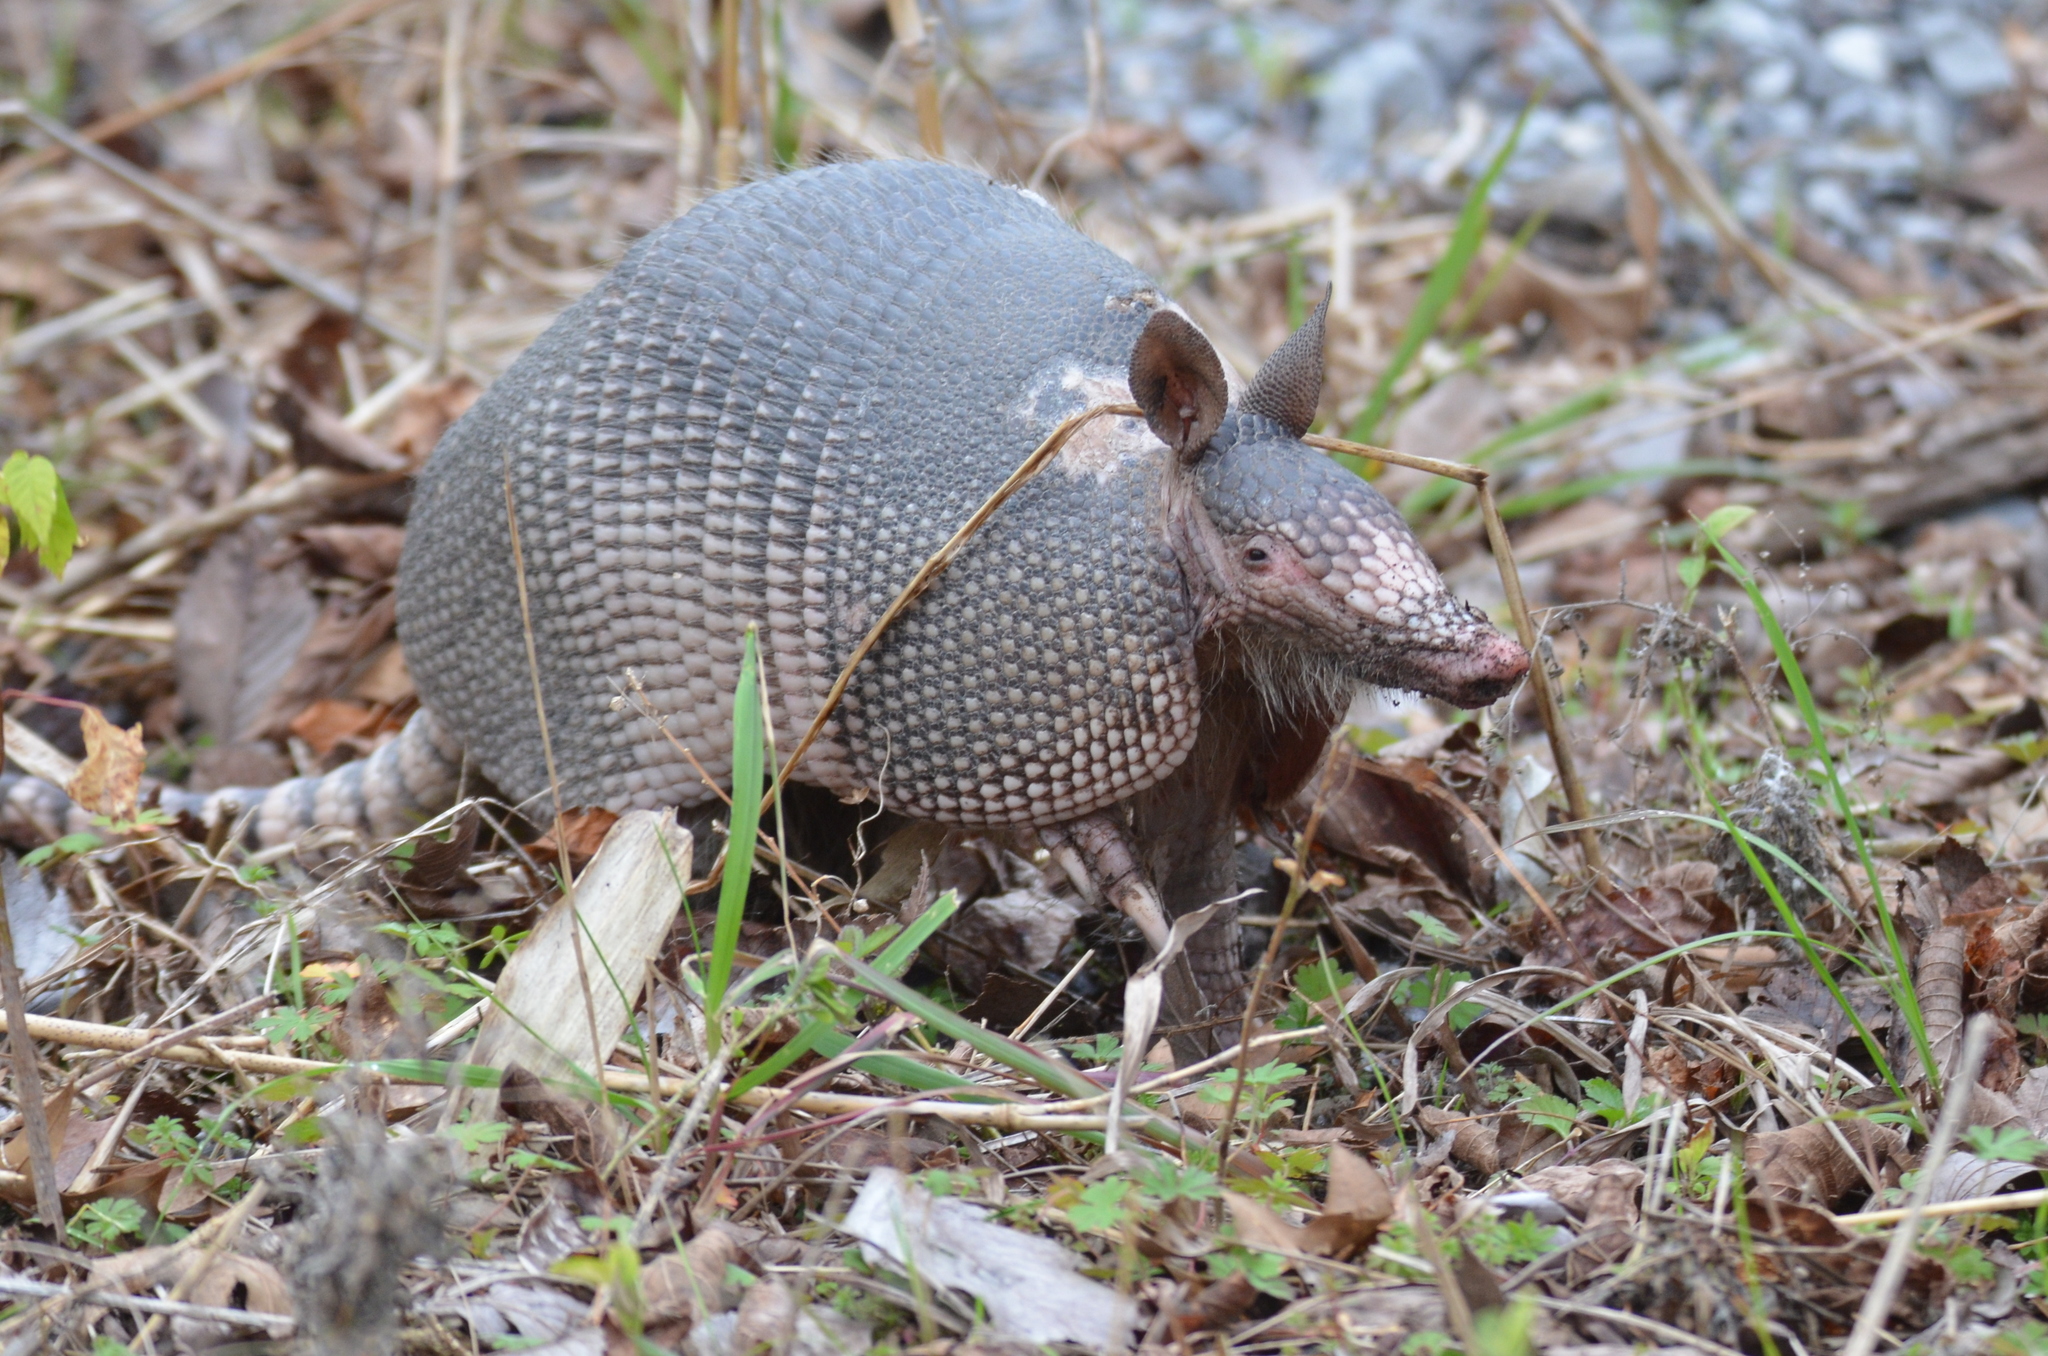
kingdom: Animalia
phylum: Chordata
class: Mammalia
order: Cingulata
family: Dasypodidae
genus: Dasypus
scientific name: Dasypus novemcinctus
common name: Nine-banded armadillo
